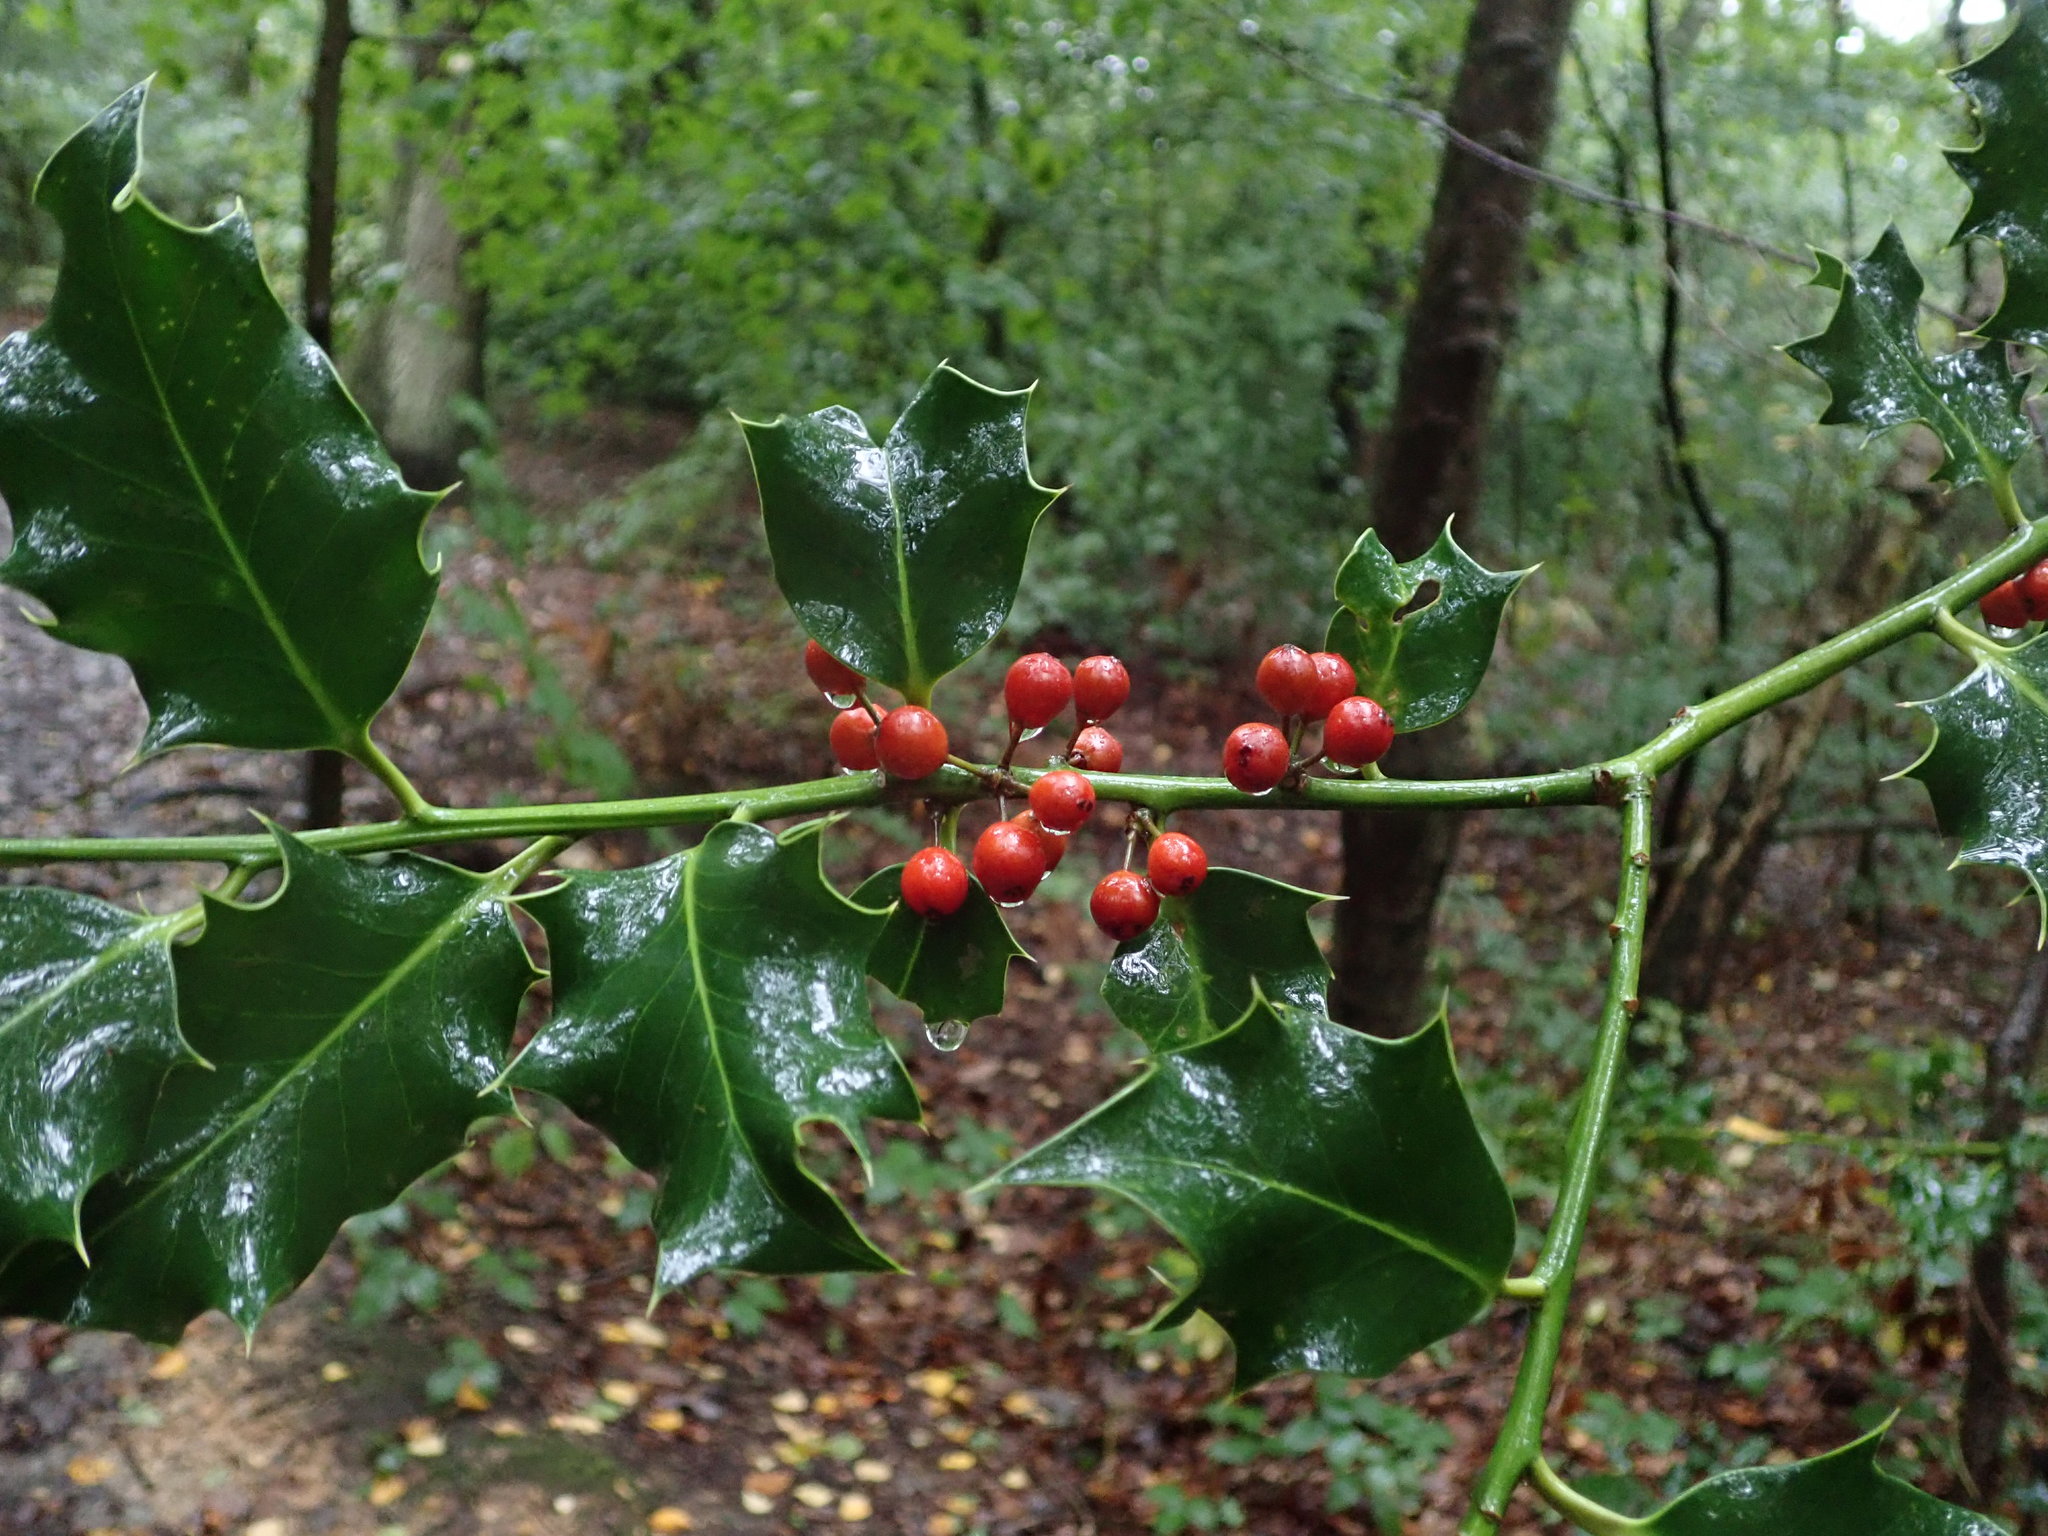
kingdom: Plantae
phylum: Tracheophyta
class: Magnoliopsida
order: Aquifoliales
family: Aquifoliaceae
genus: Ilex
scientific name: Ilex aquifolium
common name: English holly
